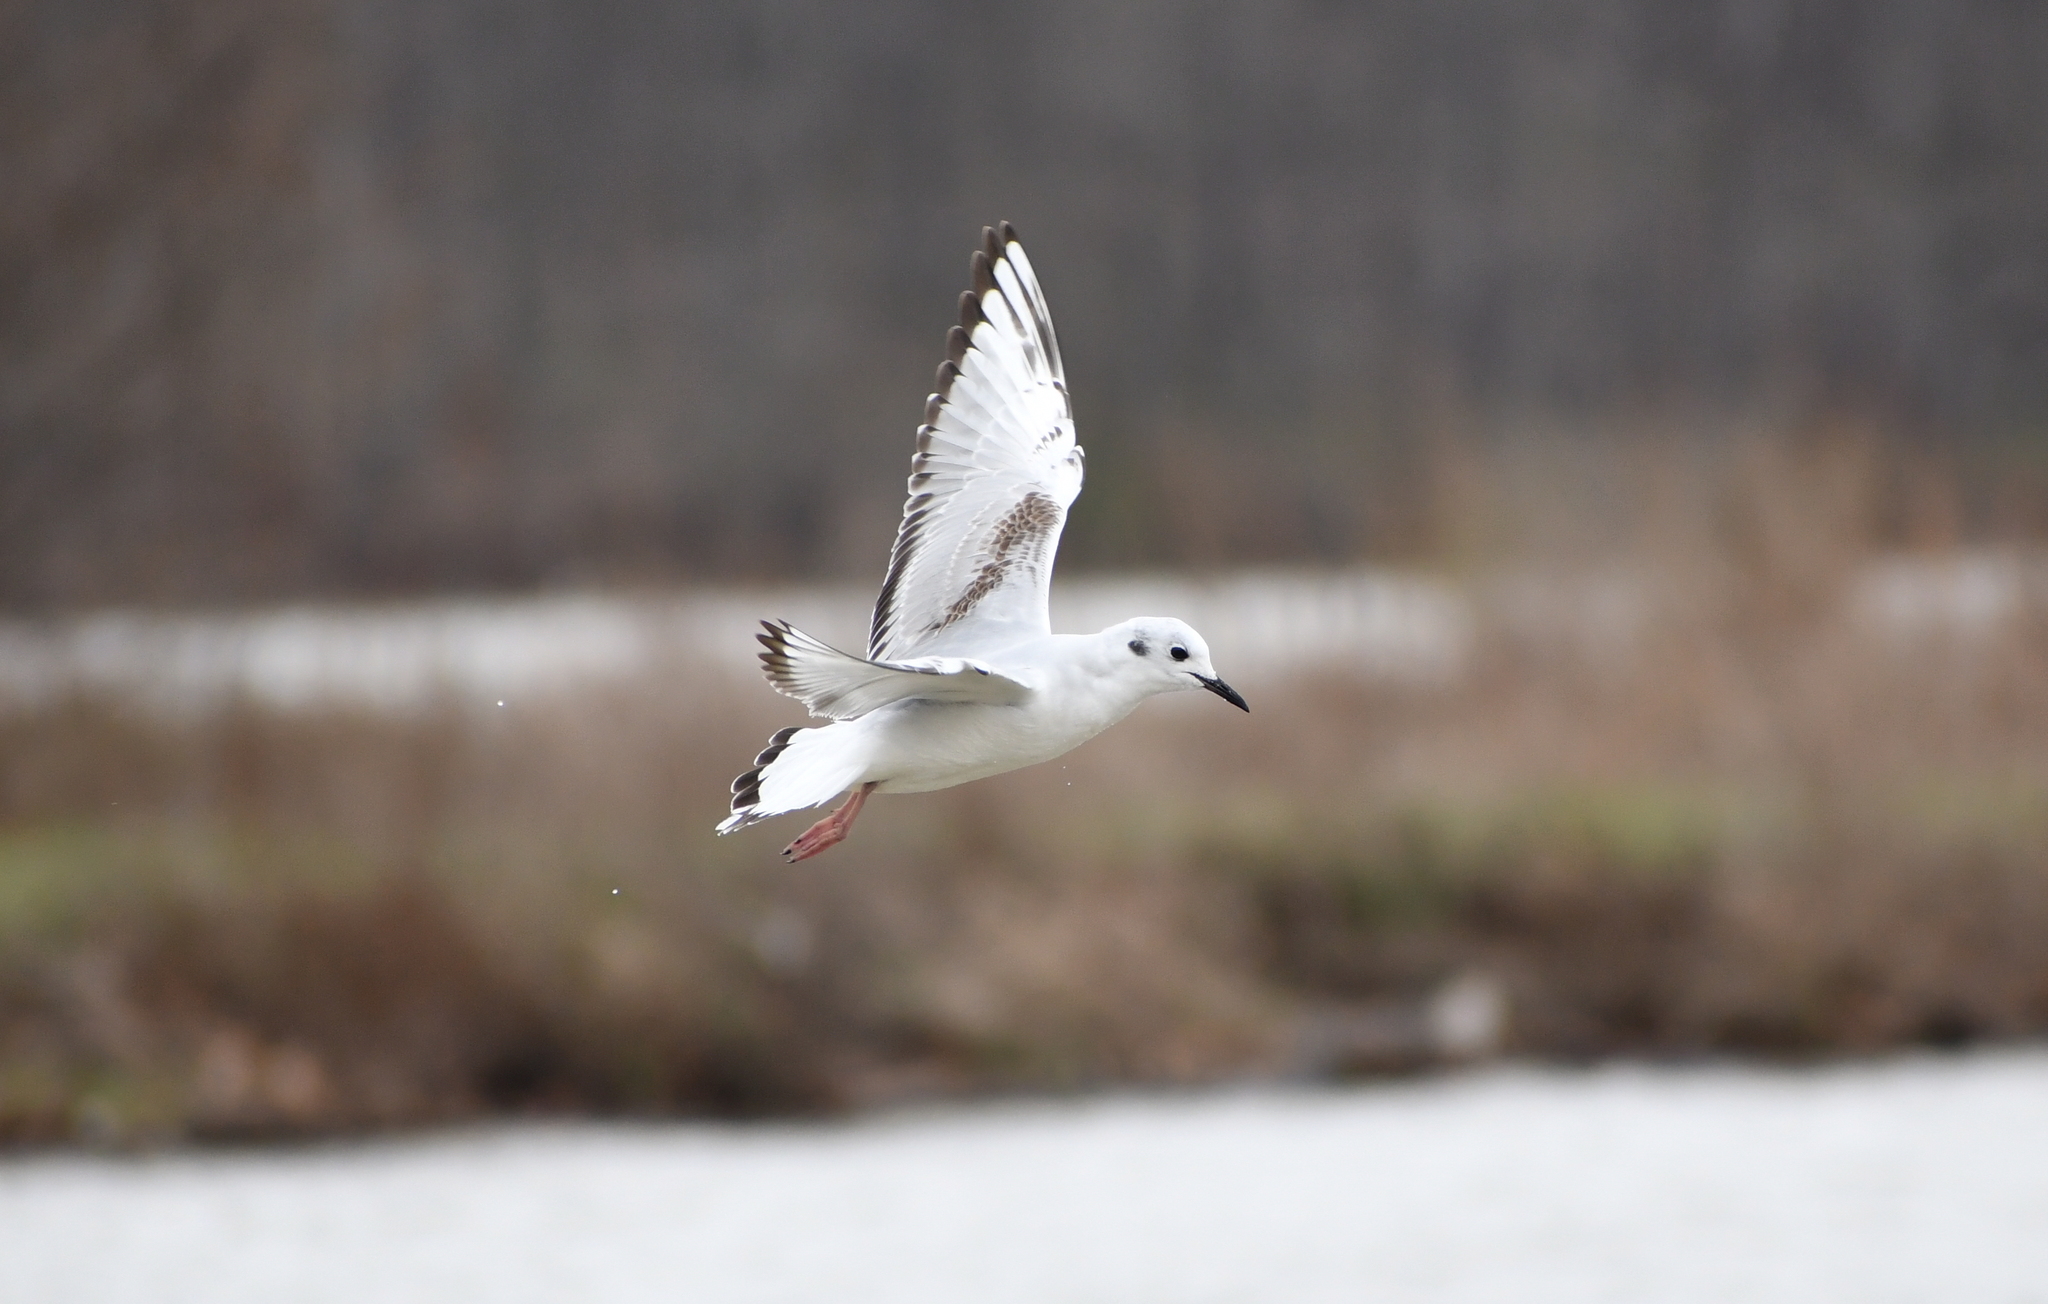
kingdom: Animalia
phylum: Chordata
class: Aves
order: Charadriiformes
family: Laridae
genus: Chroicocephalus
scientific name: Chroicocephalus philadelphia
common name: Bonaparte's gull
